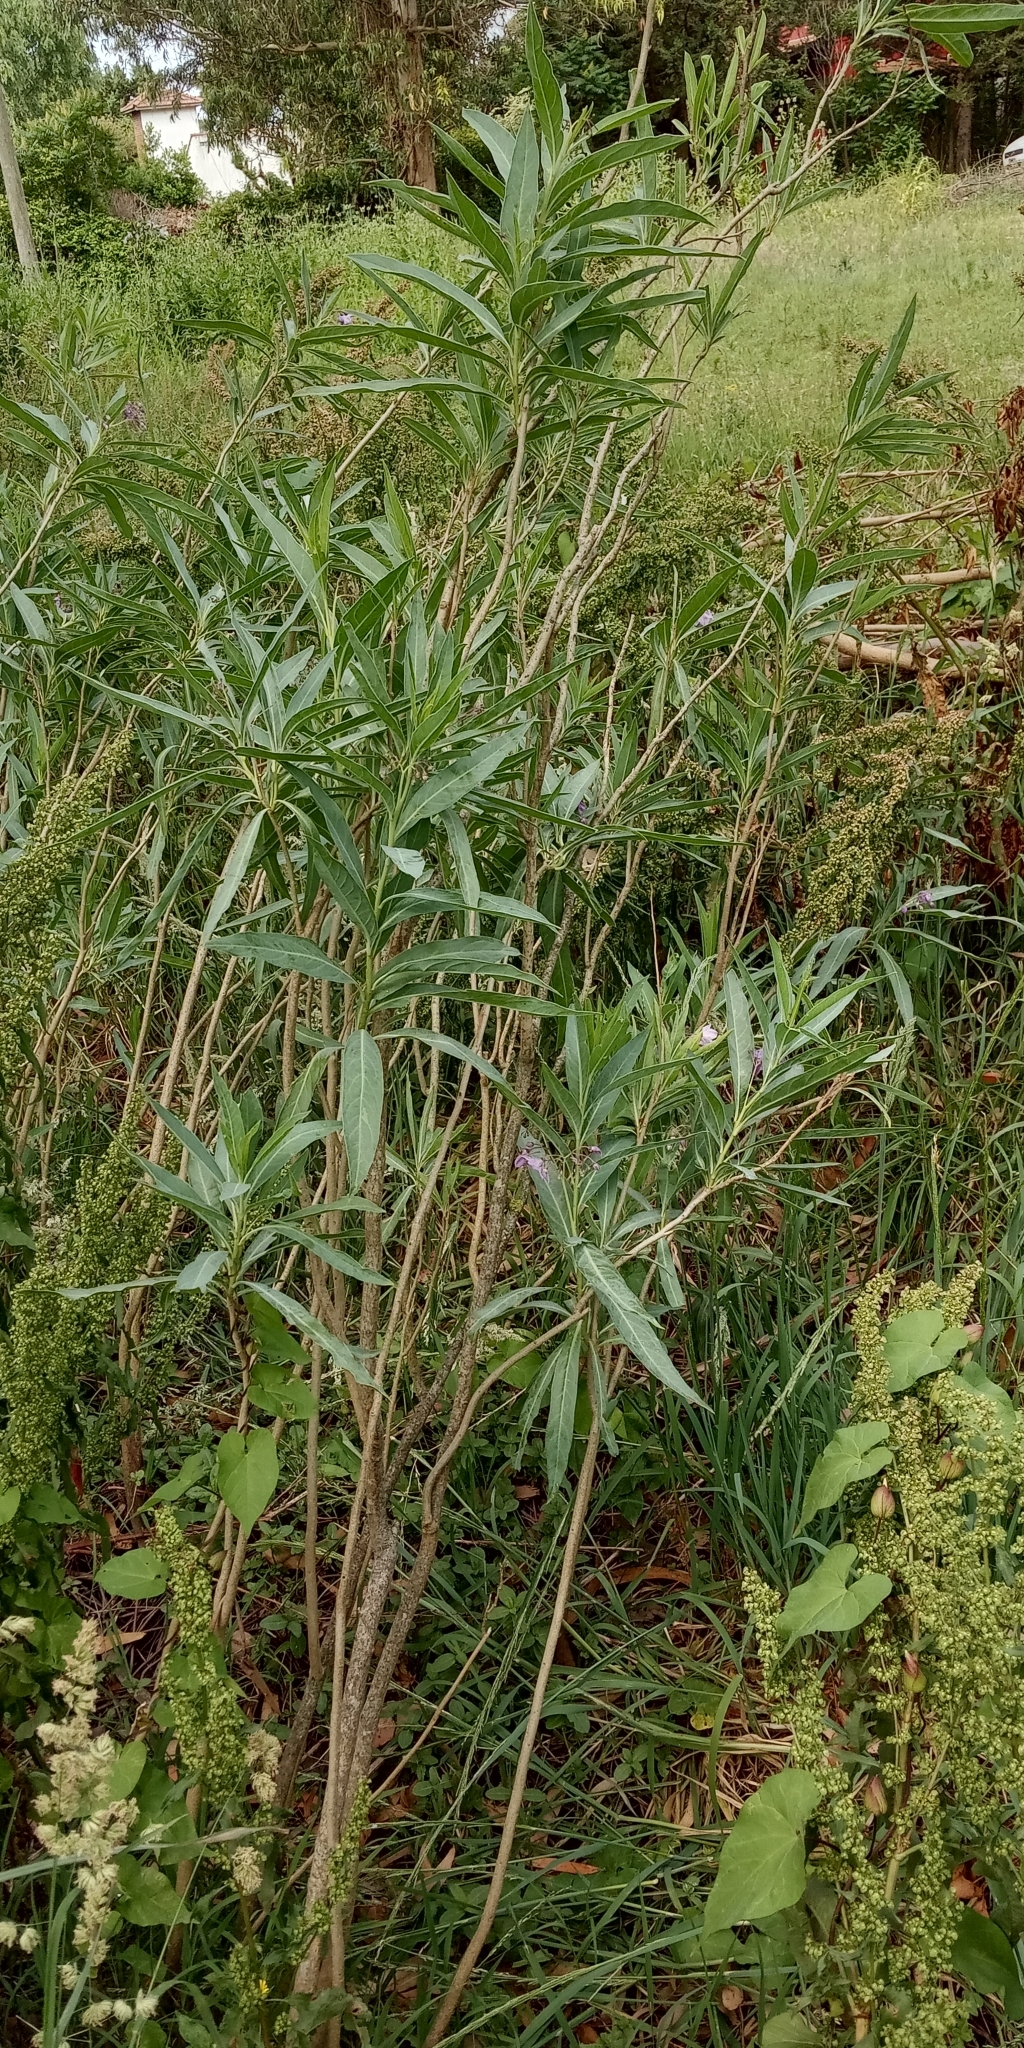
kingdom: Plantae
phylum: Tracheophyta
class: Magnoliopsida
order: Solanales
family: Solanaceae
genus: Solanum
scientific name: Solanum glaucophyllum
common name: Waxyleaf nightshade
